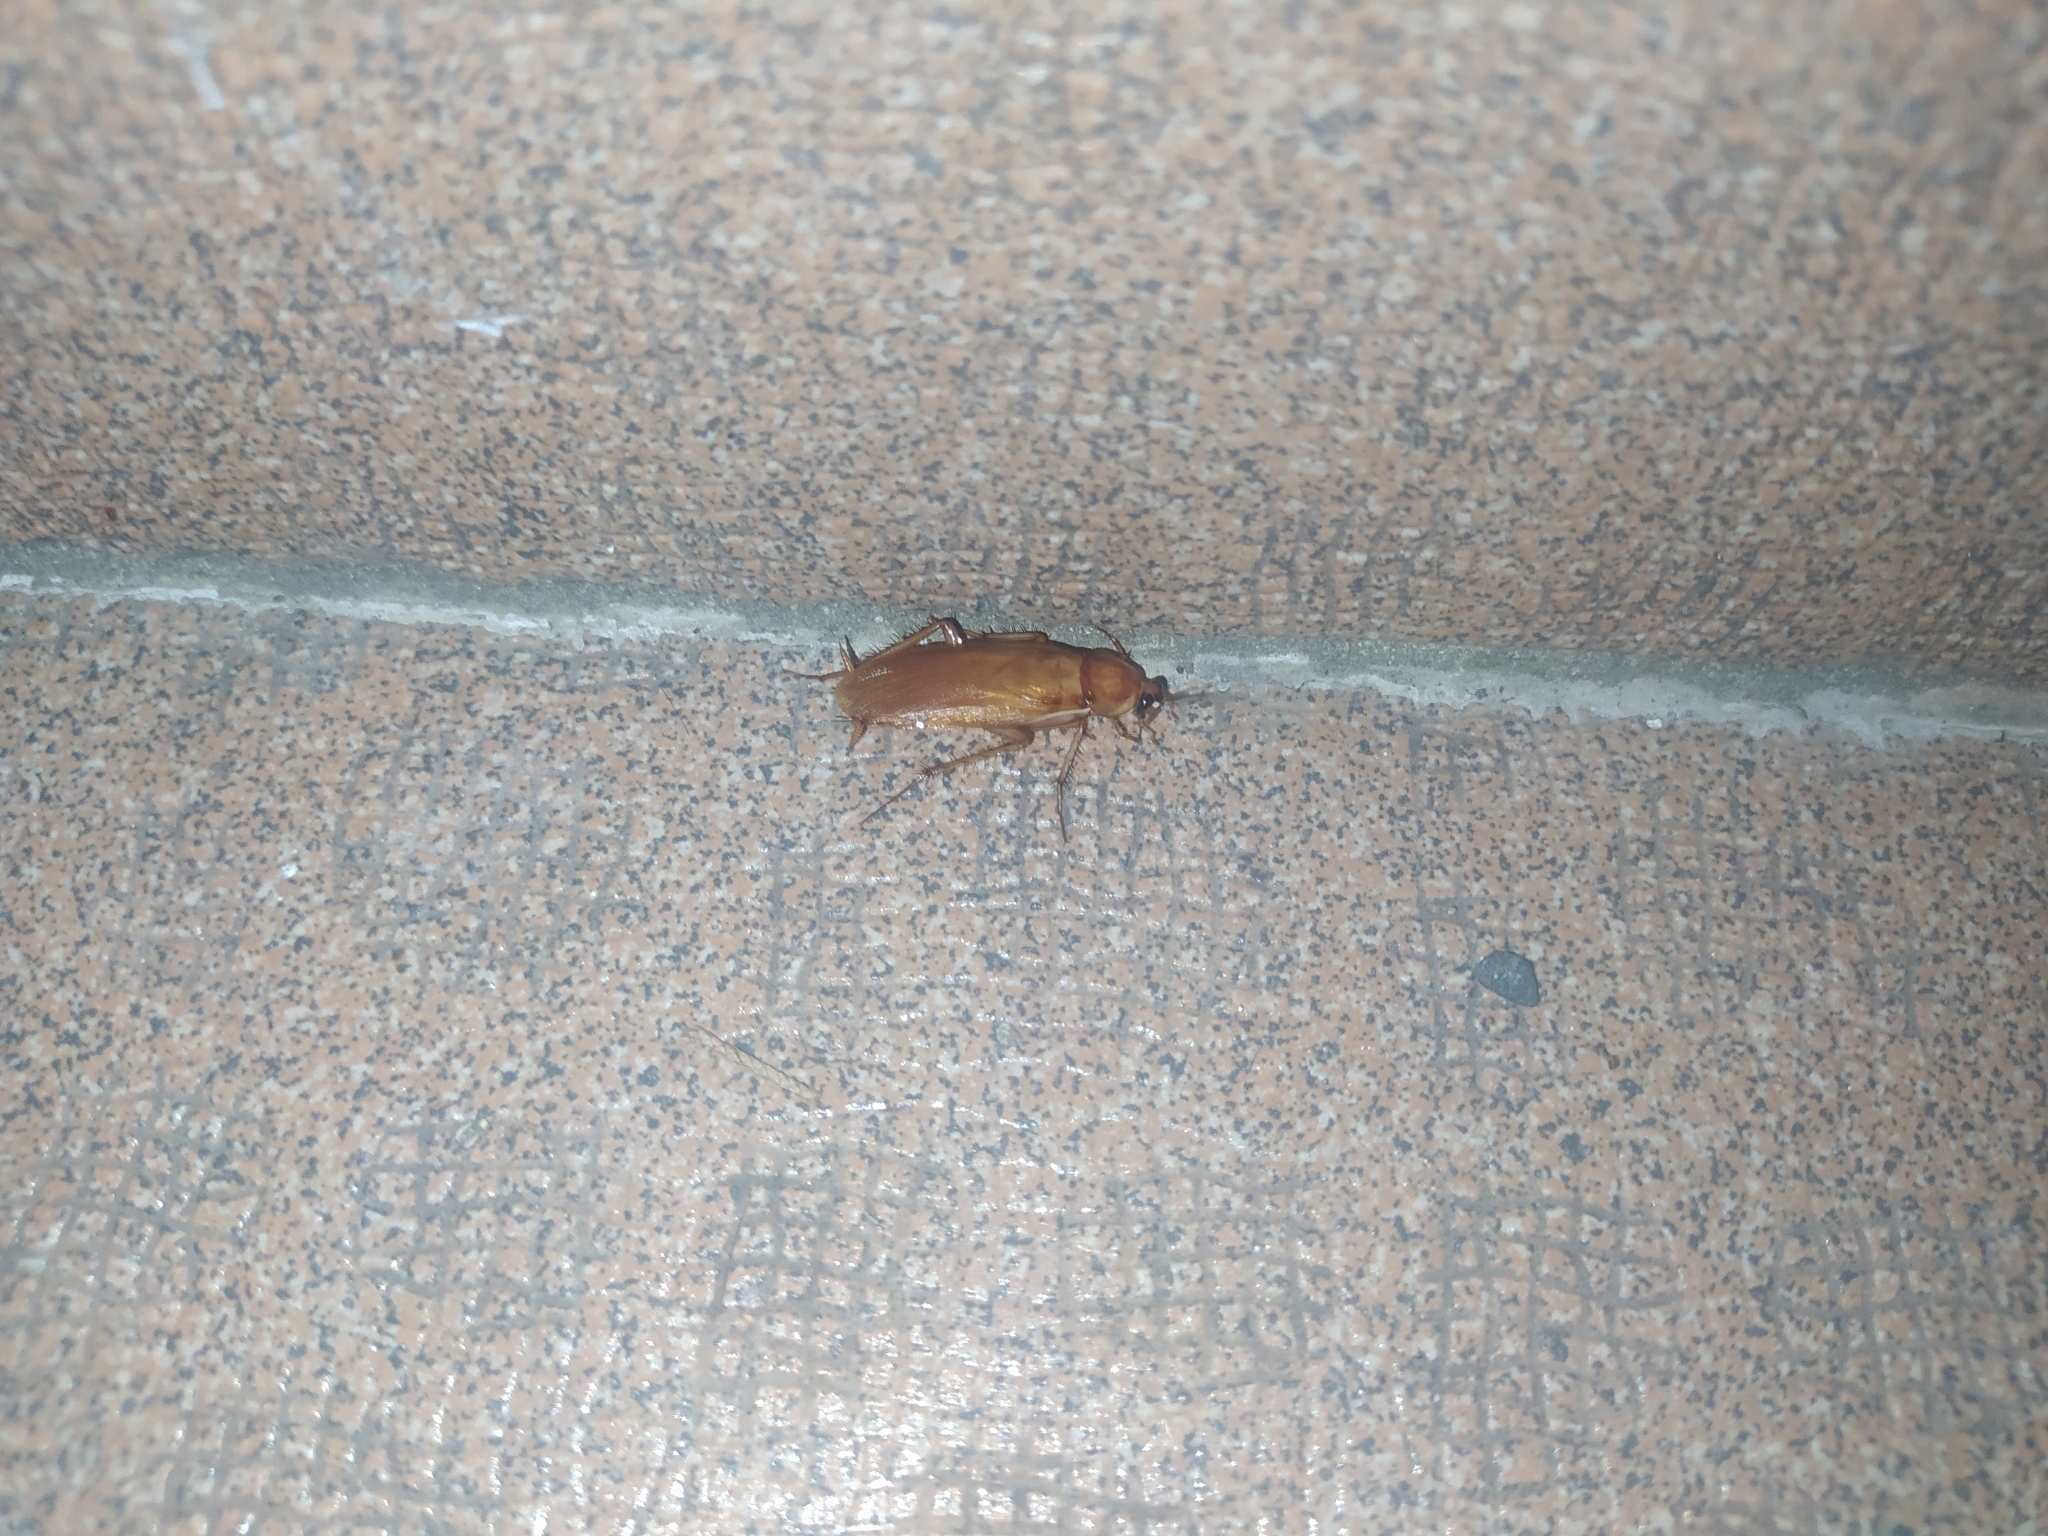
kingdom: Animalia
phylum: Arthropoda
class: Insecta
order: Blattodea
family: Blattidae
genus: Periplaneta
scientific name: Periplaneta lateralis
